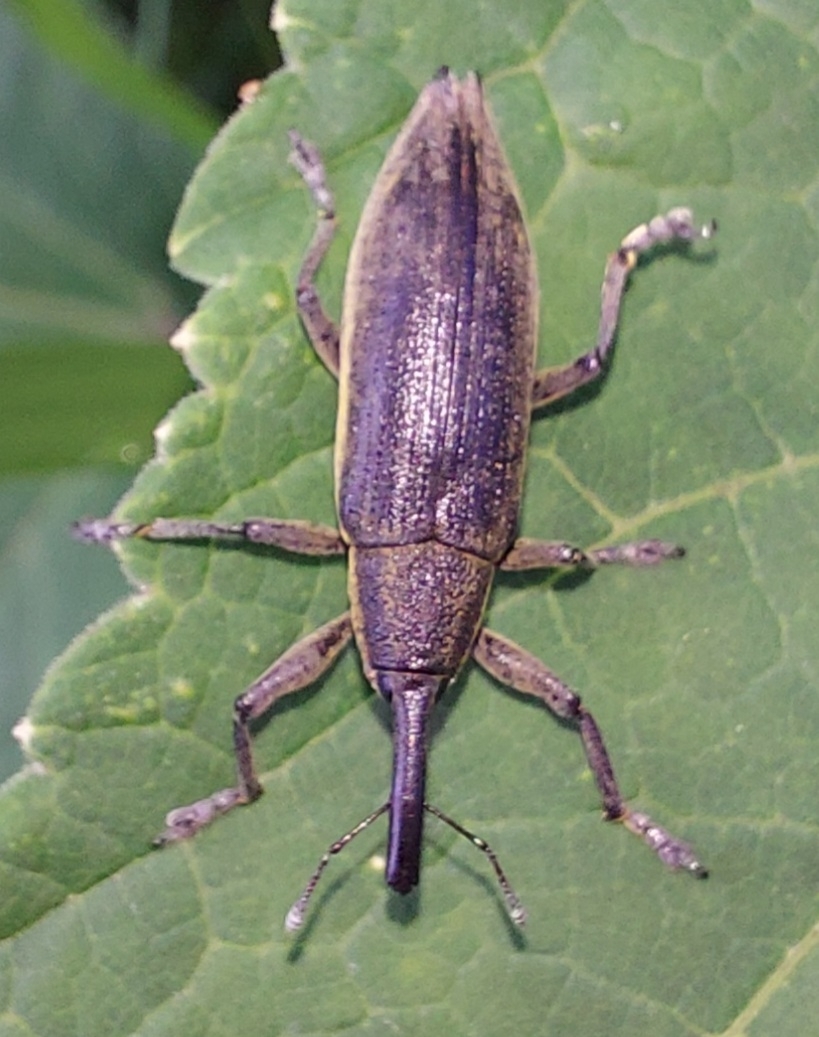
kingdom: Animalia
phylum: Arthropoda
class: Insecta
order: Coleoptera
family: Curculionidae
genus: Lixus
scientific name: Lixus iridis
